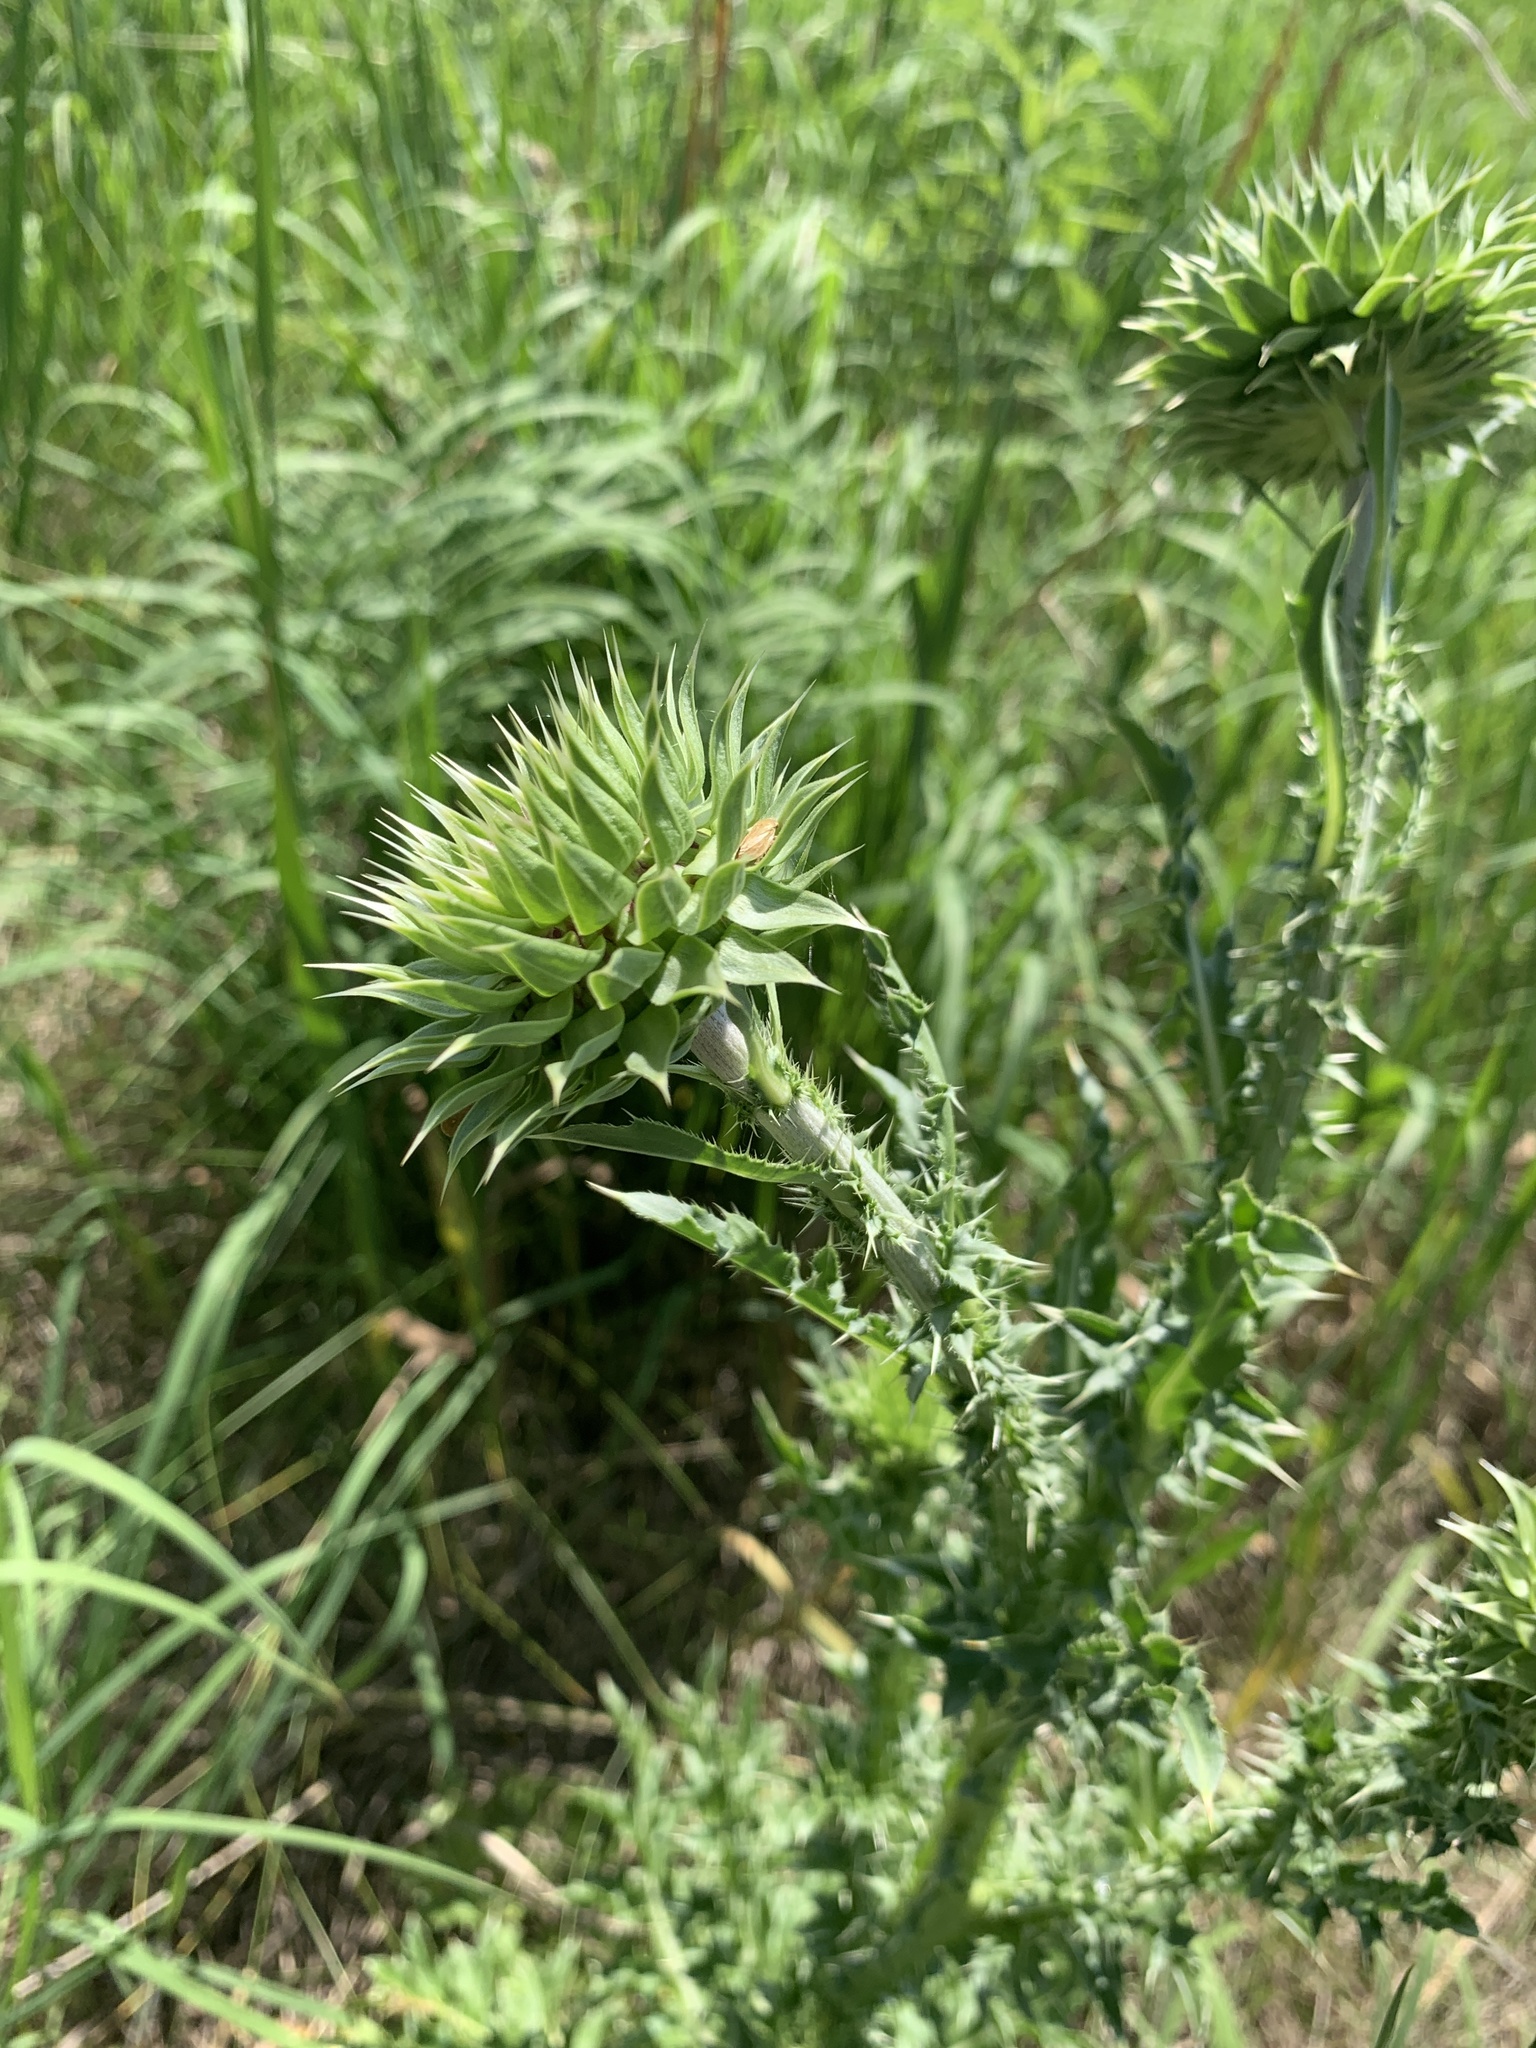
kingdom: Plantae
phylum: Tracheophyta
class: Magnoliopsida
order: Asterales
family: Asteraceae
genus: Carduus
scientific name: Carduus nutans
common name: Musk thistle
